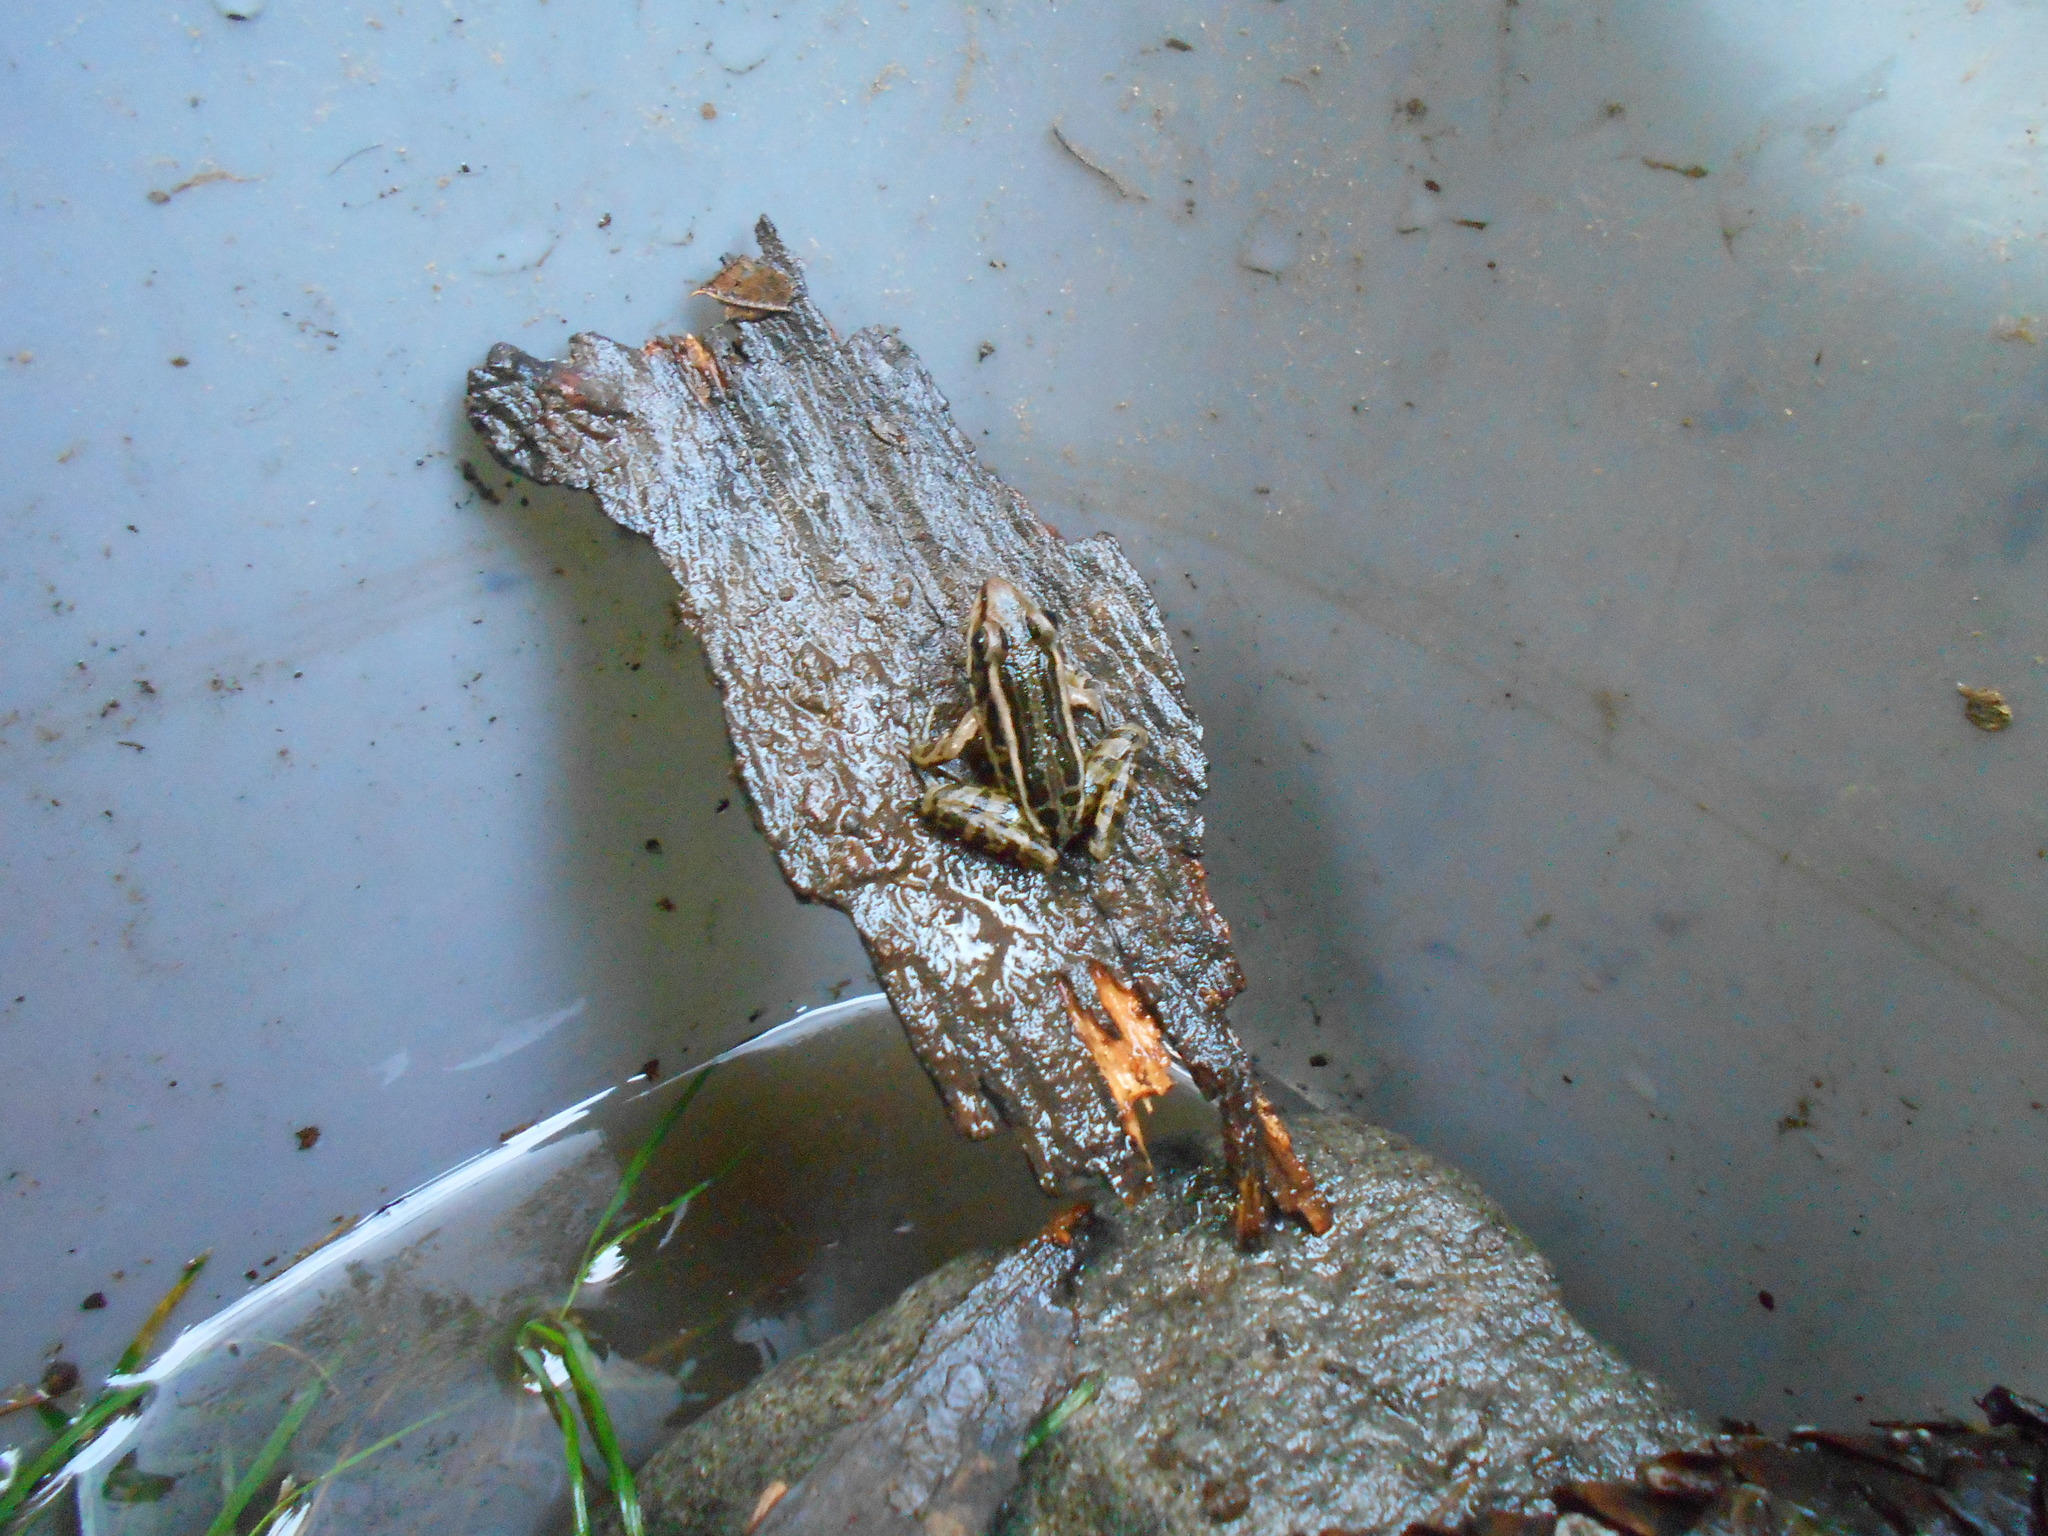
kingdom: Animalia
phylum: Chordata
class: Amphibia
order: Anura
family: Ranidae
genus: Lithobates
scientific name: Lithobates palustris
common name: Pickerel frog
